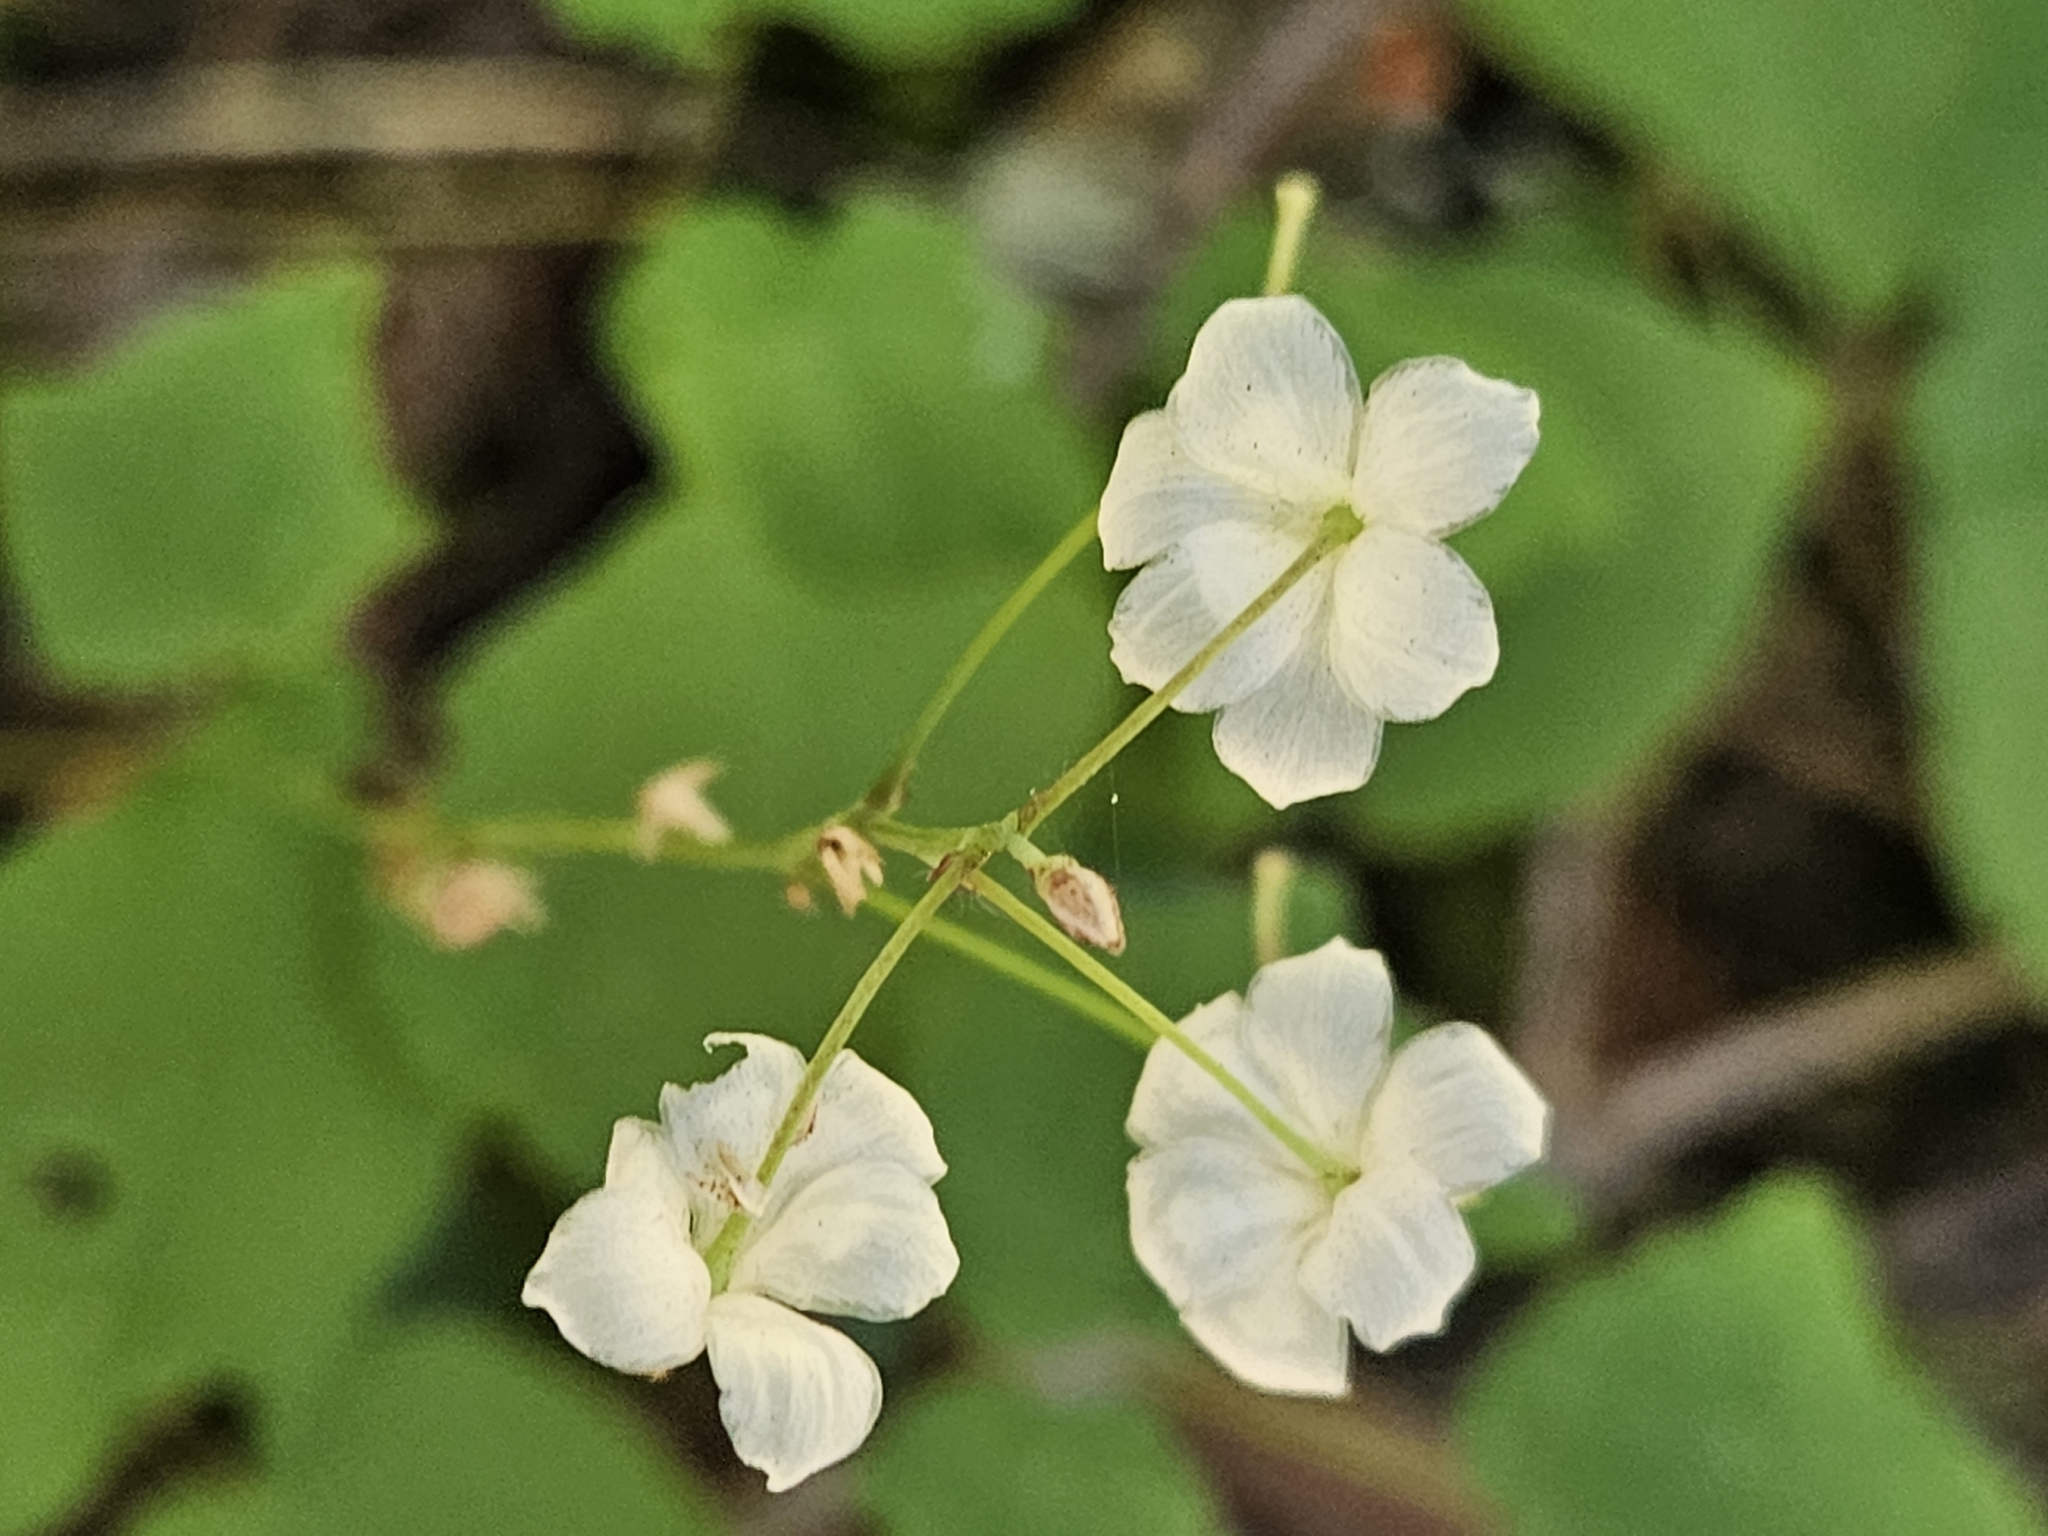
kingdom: Plantae
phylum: Tracheophyta
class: Magnoliopsida
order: Ranunculales
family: Berberidaceae
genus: Vancouveria
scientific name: Vancouveria hexandra
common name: Northern inside-out-flower
